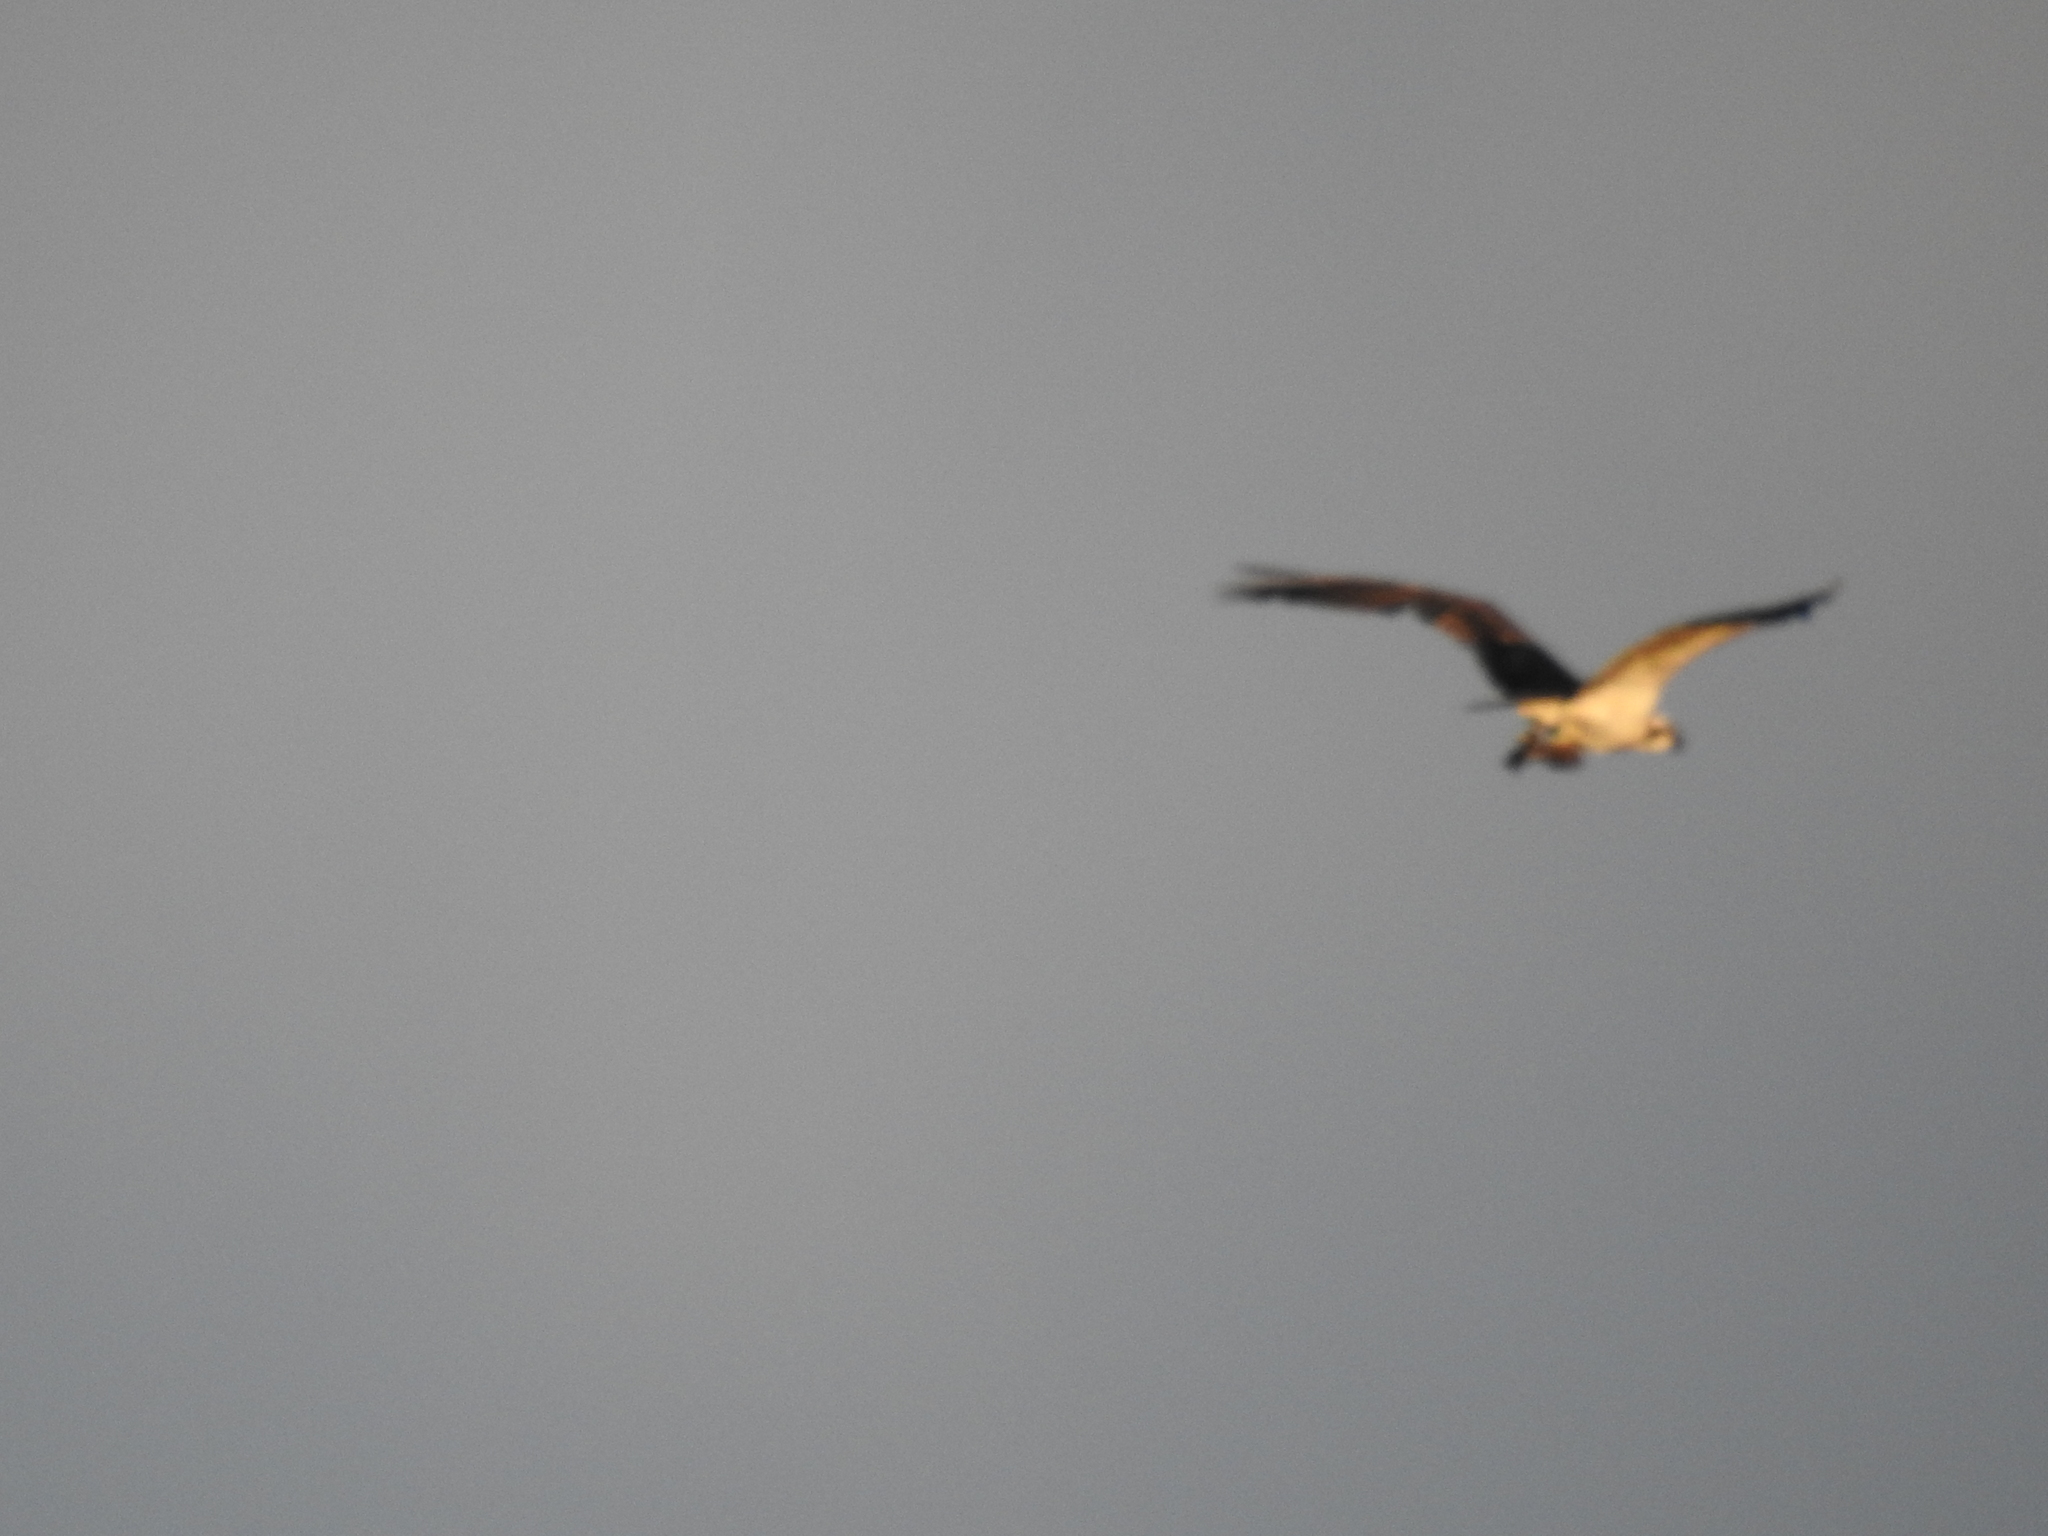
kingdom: Animalia
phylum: Chordata
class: Aves
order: Accipitriformes
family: Pandionidae
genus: Pandion
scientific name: Pandion haliaetus
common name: Osprey
